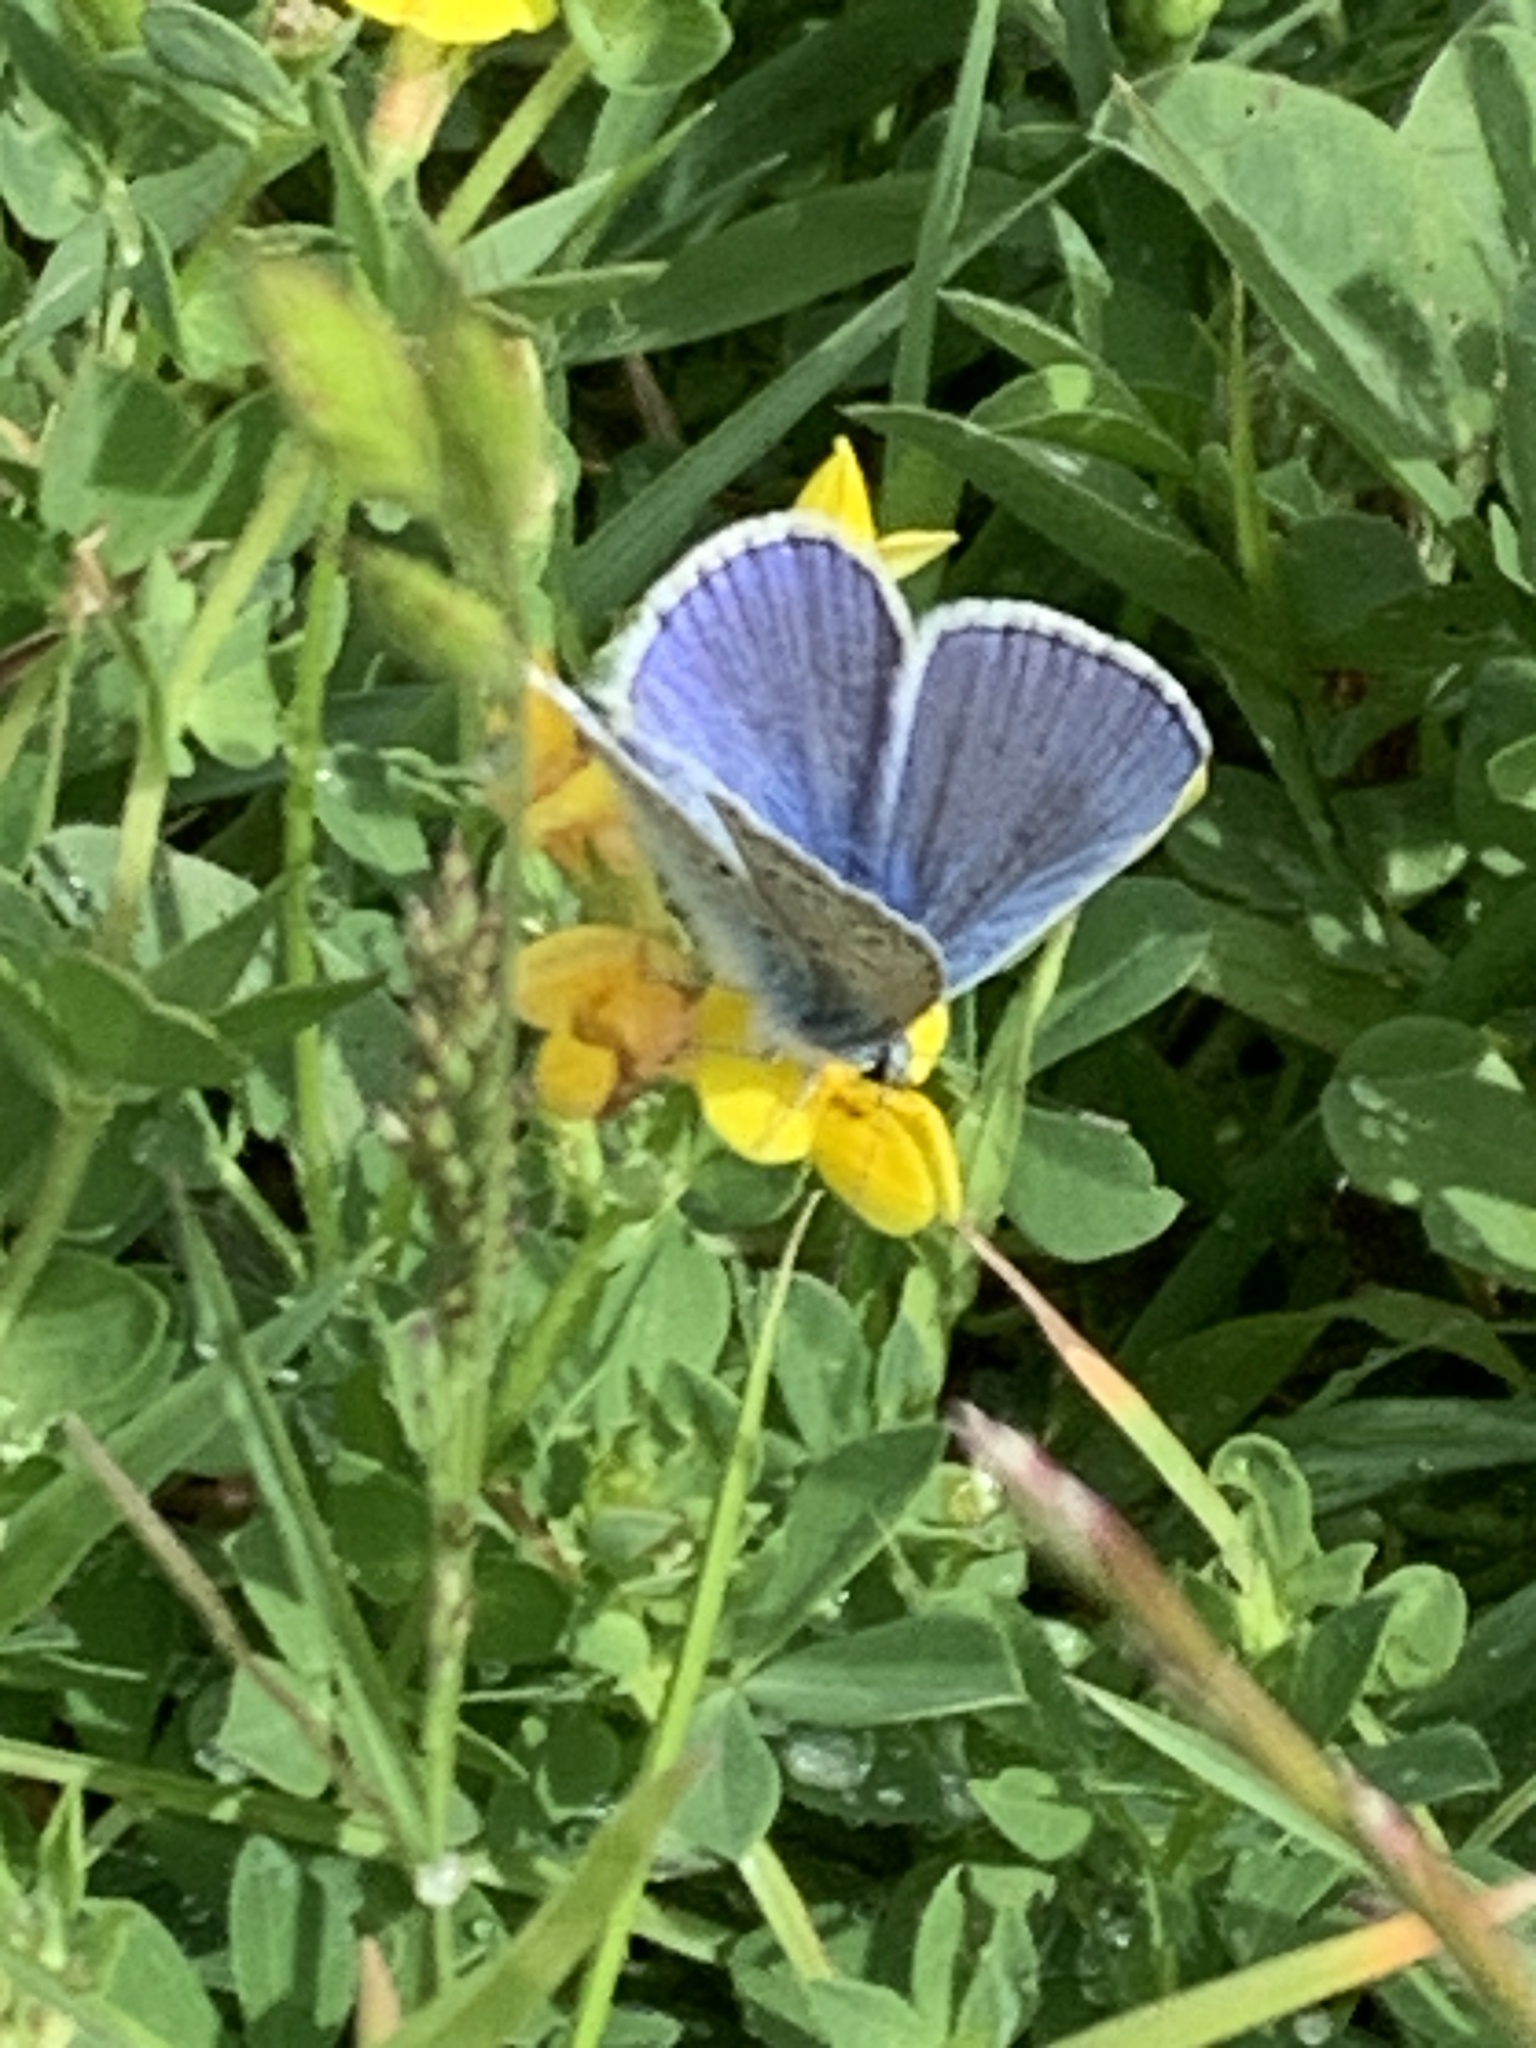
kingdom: Animalia
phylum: Arthropoda
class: Insecta
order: Lepidoptera
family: Lycaenidae
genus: Polyommatus
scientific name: Polyommatus icarus
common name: Common blue
